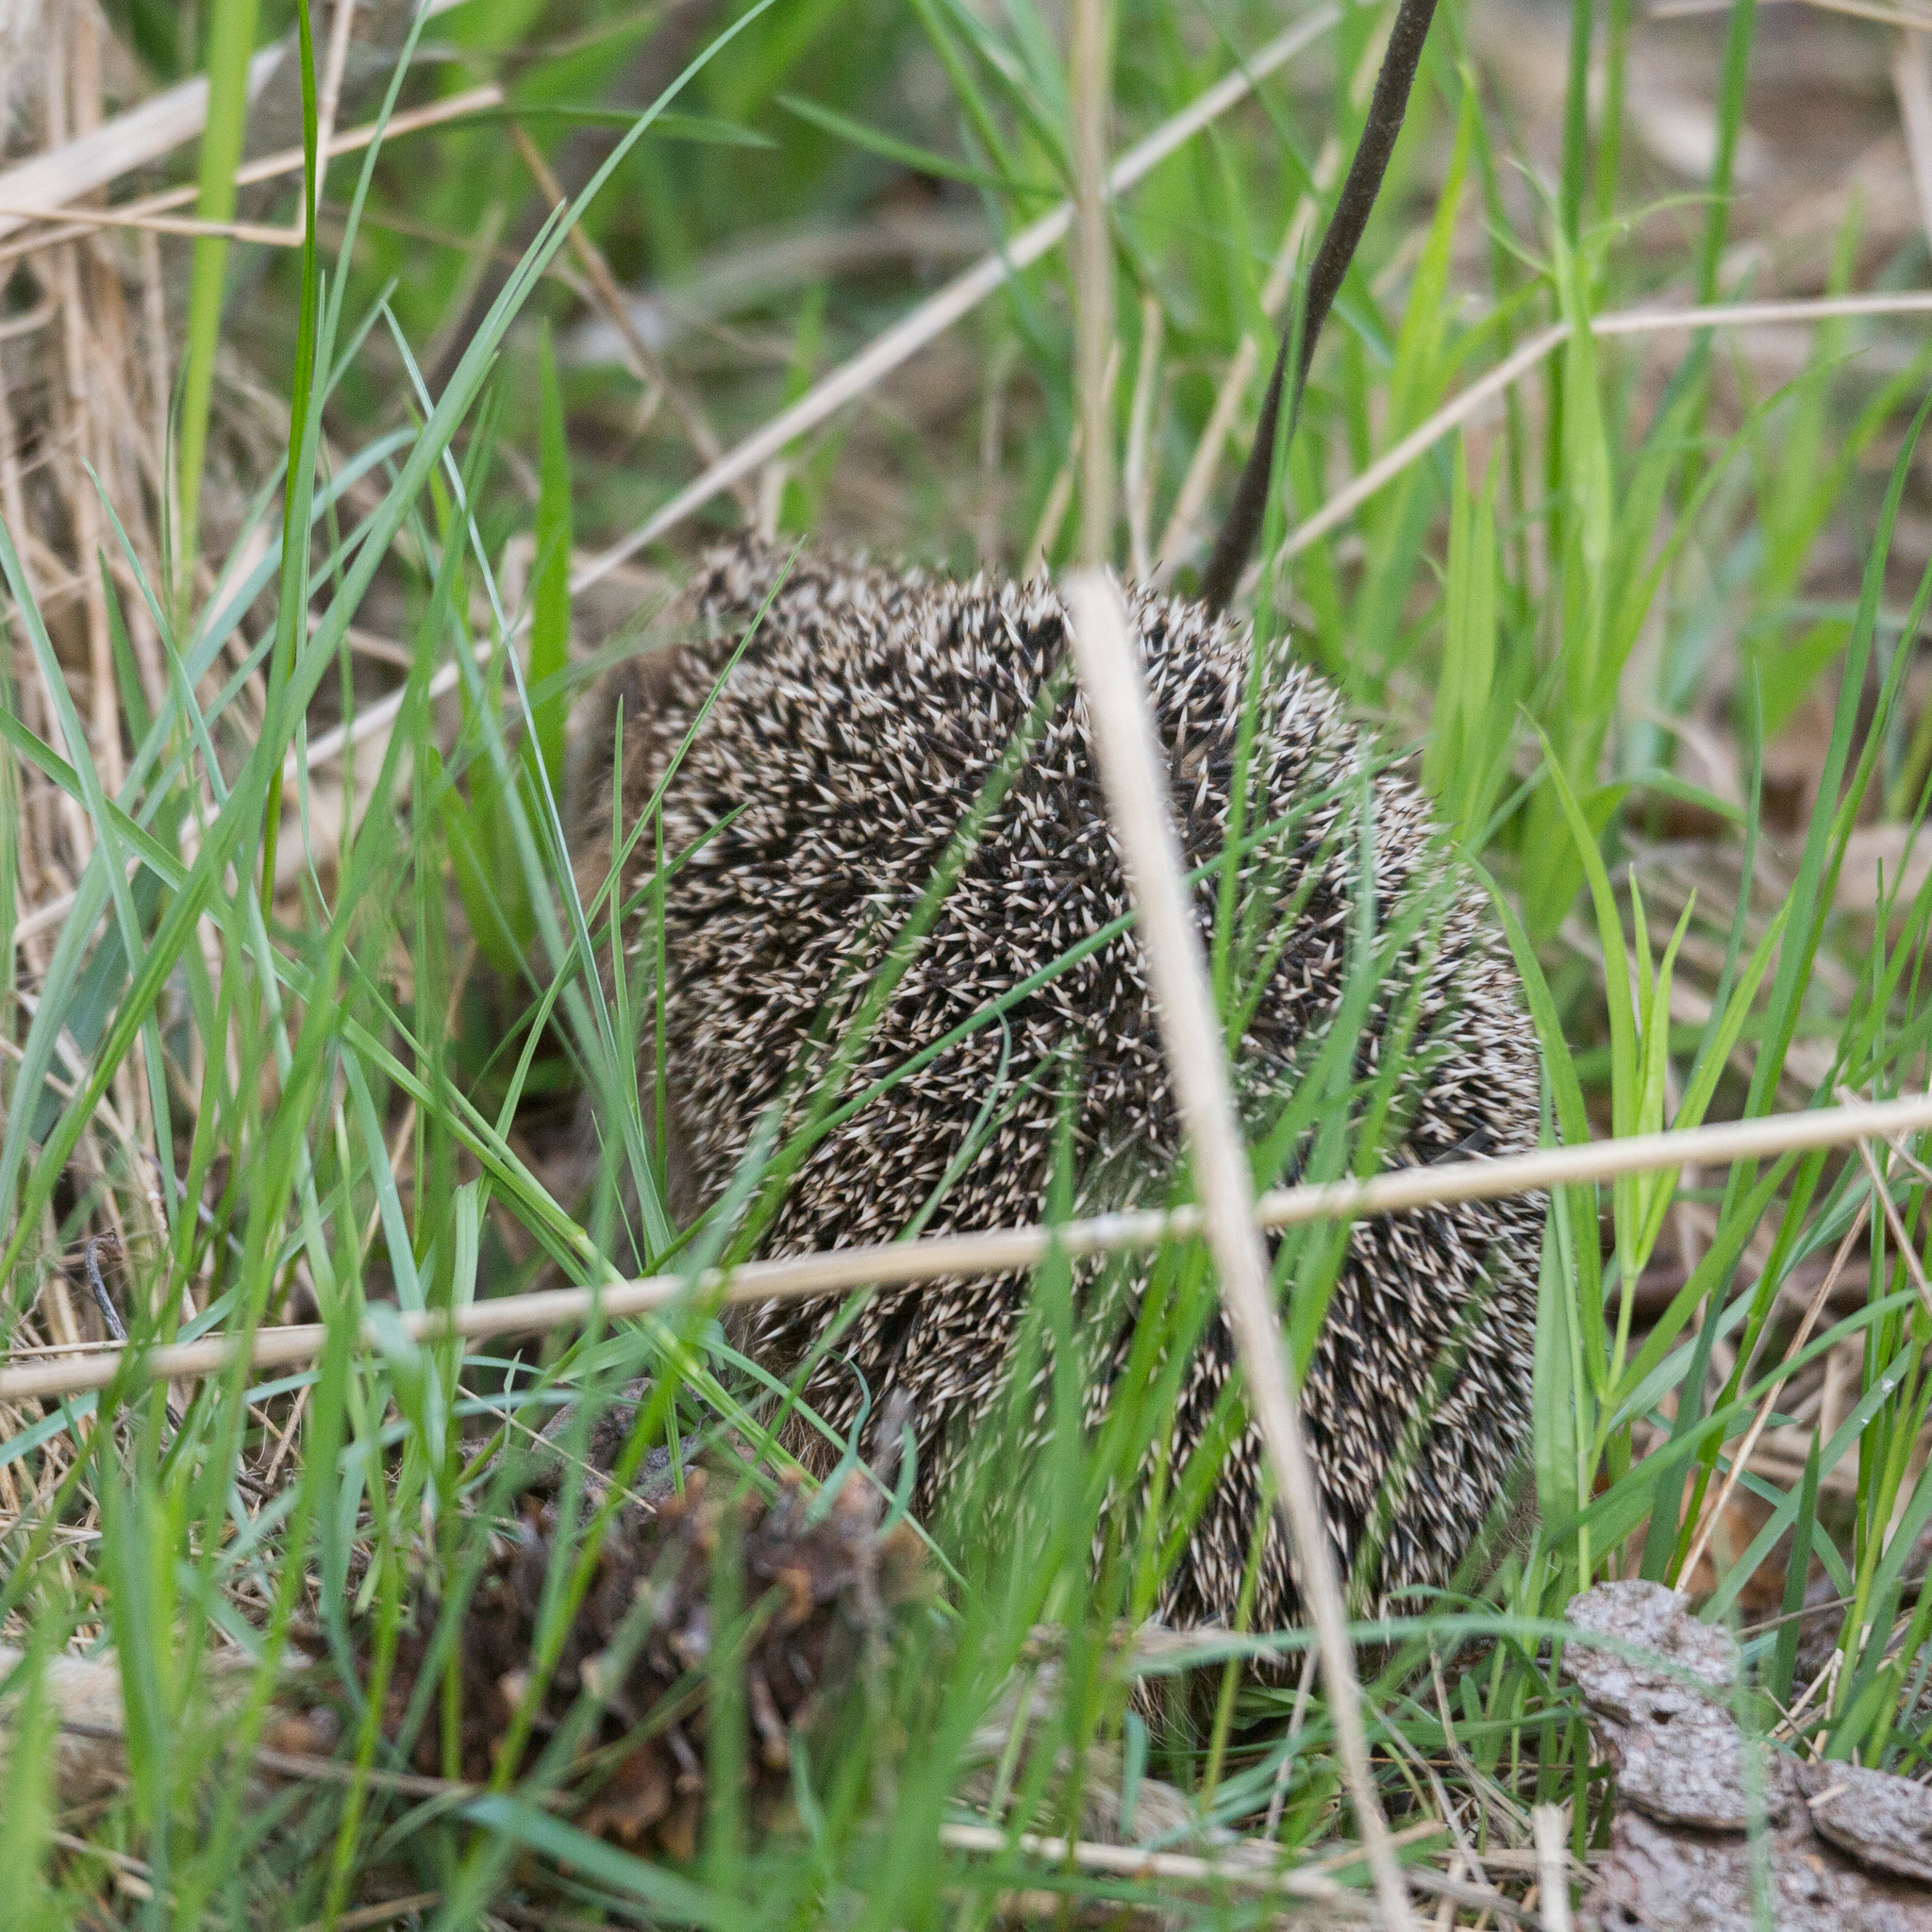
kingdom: Animalia
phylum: Chordata
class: Mammalia
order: Erinaceomorpha
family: Erinaceidae
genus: Erinaceus
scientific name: Erinaceus europaeus
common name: West european hedgehog
